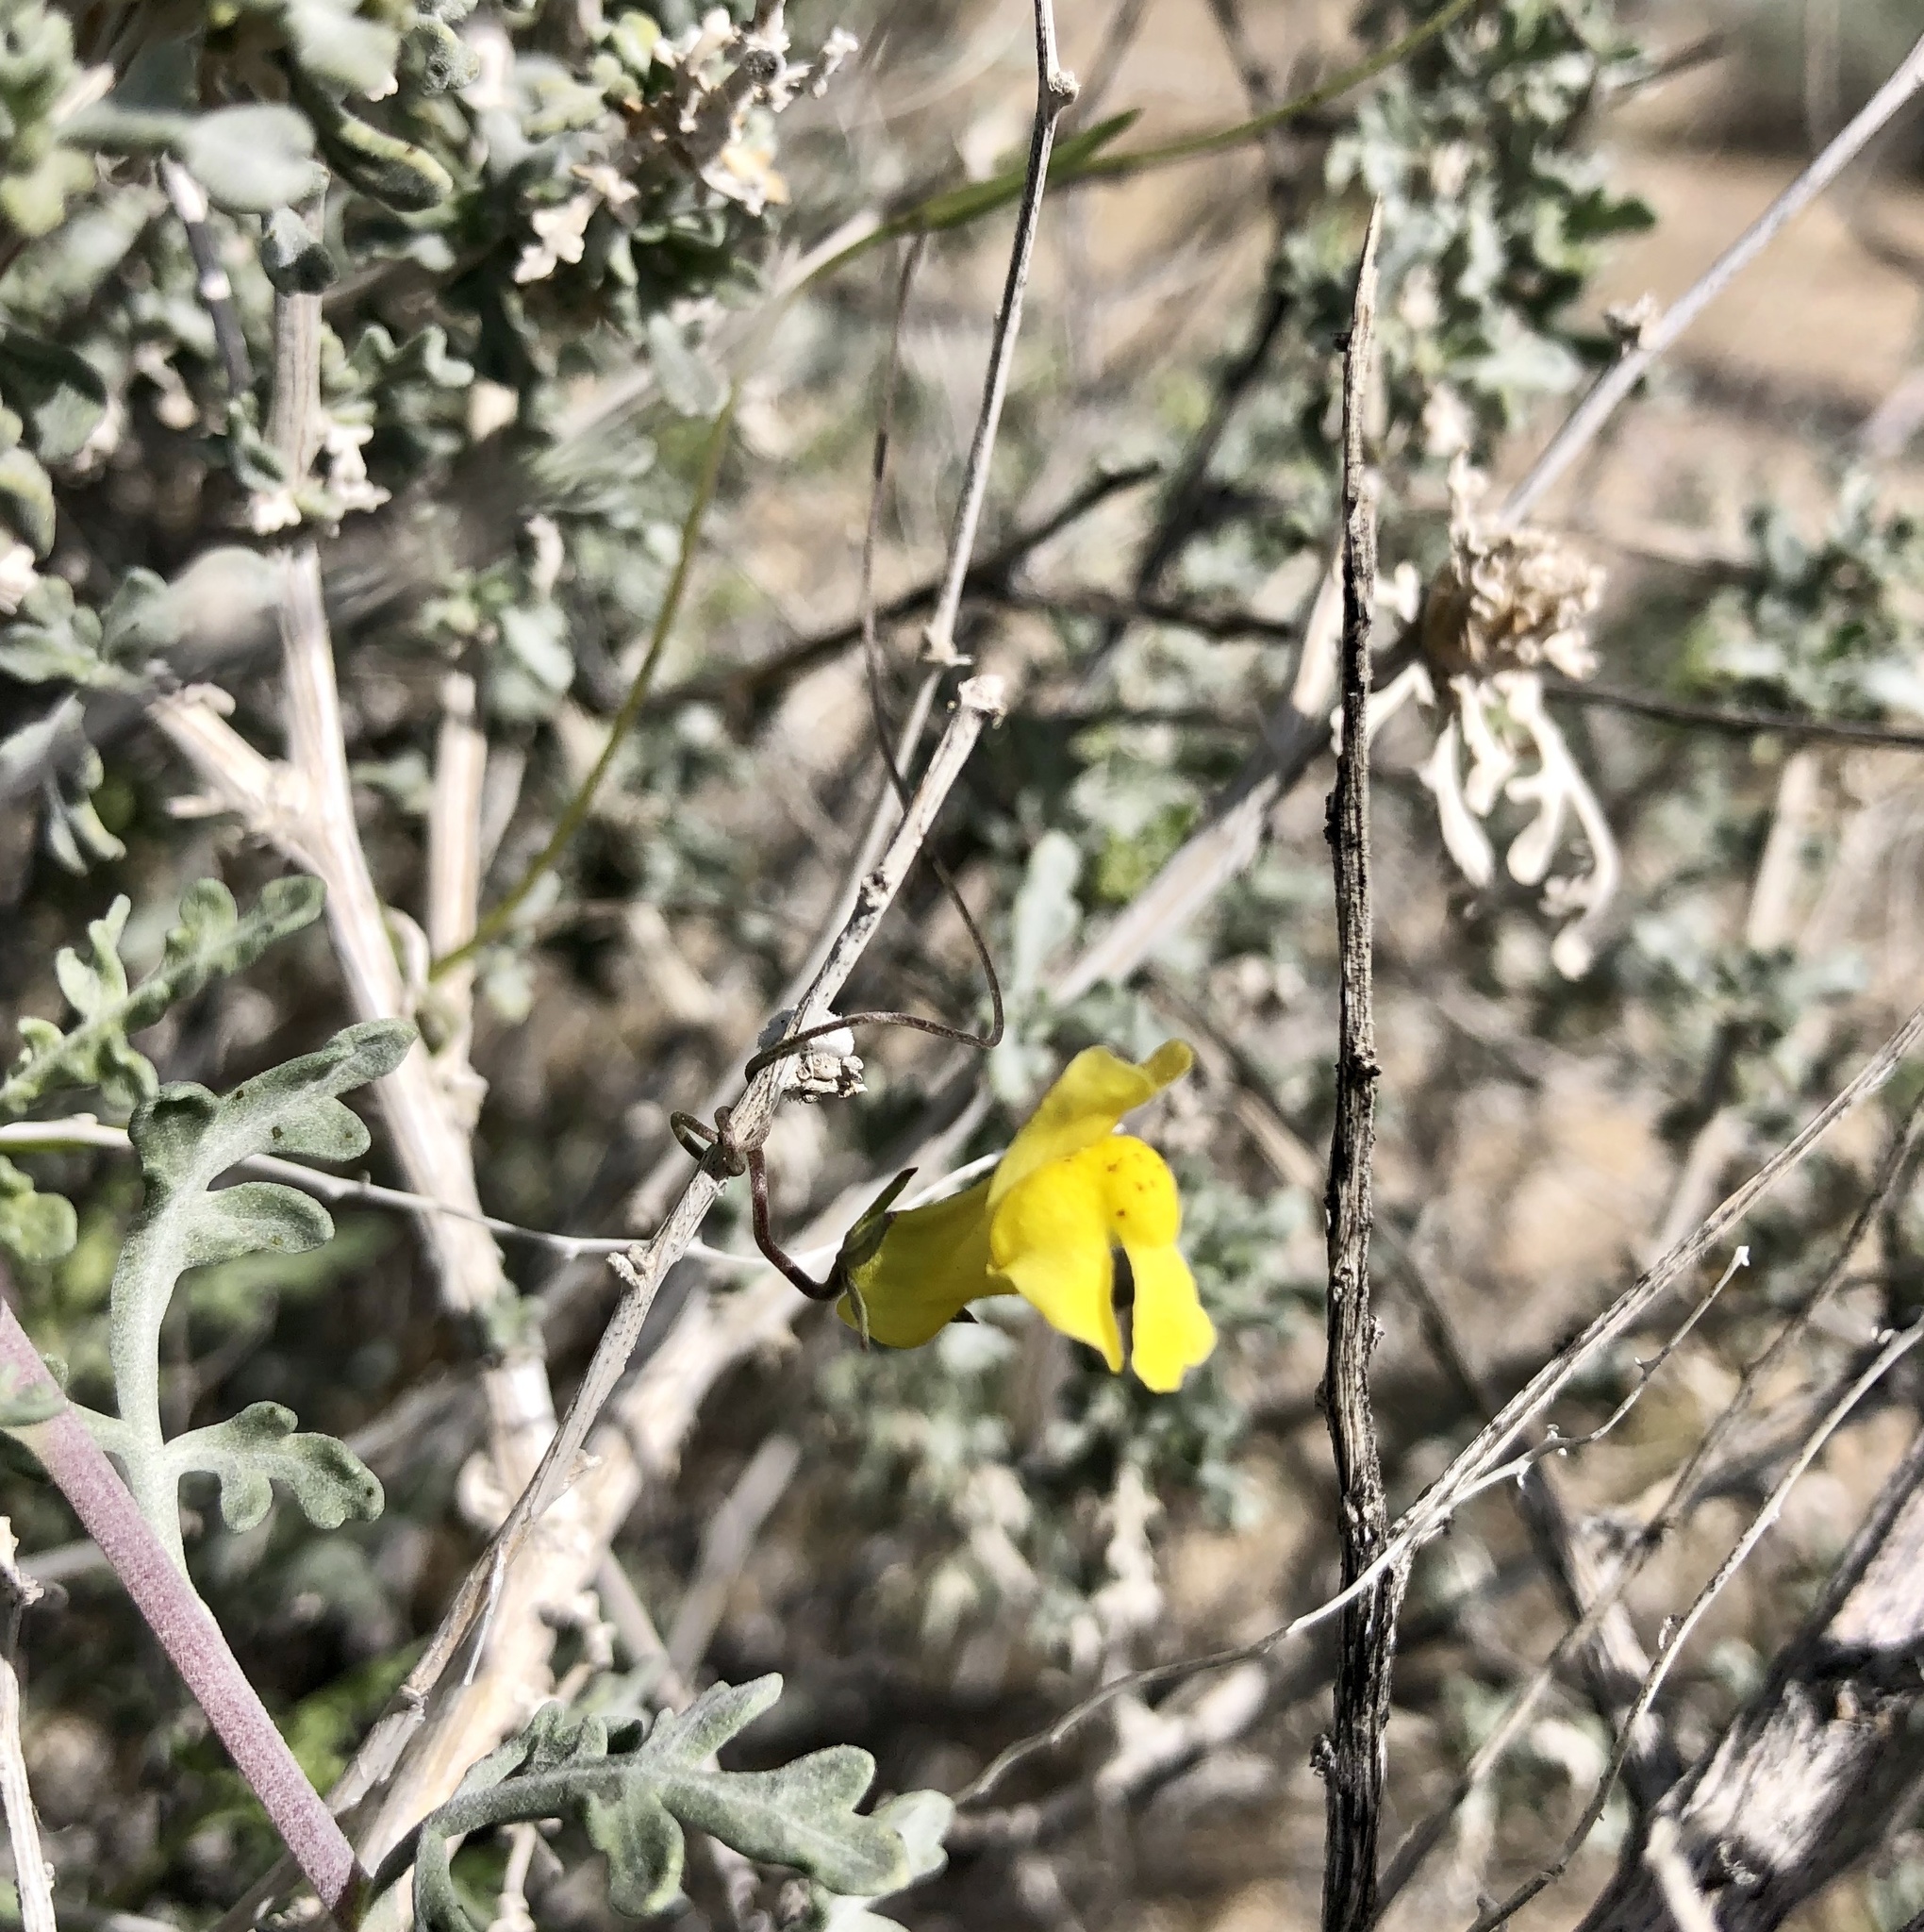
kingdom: Plantae
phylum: Tracheophyta
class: Magnoliopsida
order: Lamiales
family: Plantaginaceae
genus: Neogaerrhinum
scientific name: Neogaerrhinum filipes
